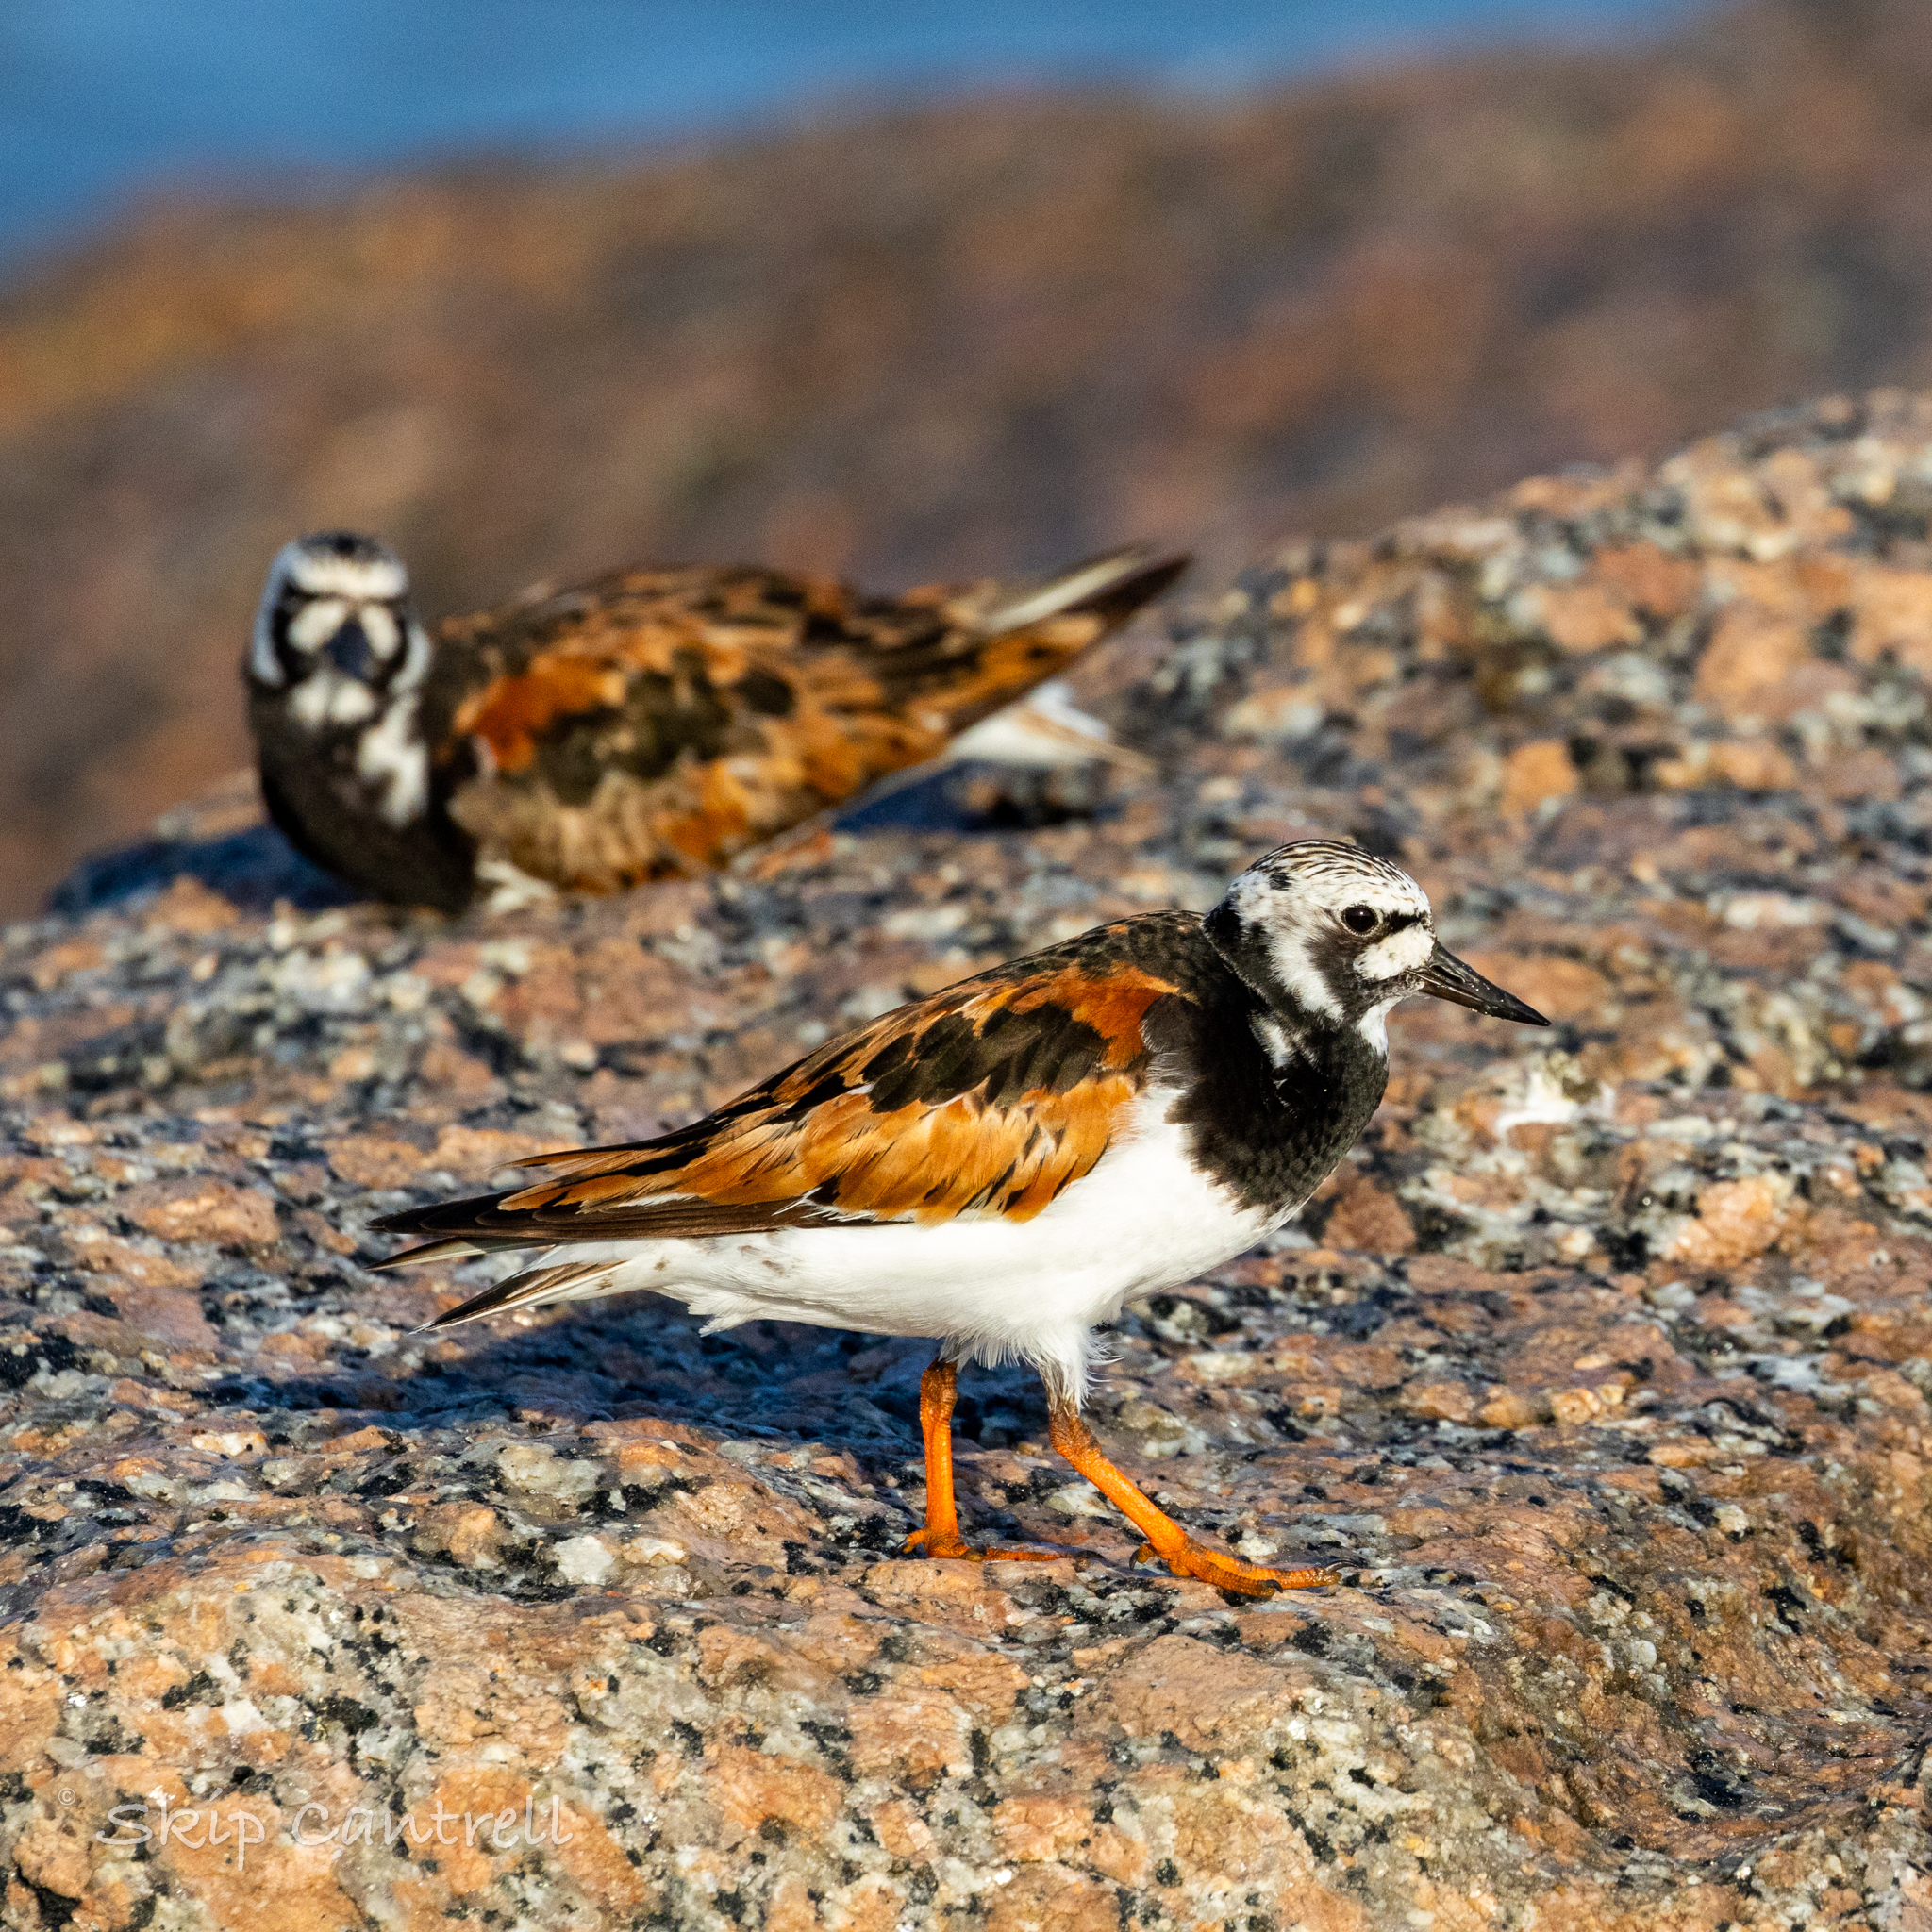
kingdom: Animalia
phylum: Chordata
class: Aves
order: Charadriiformes
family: Scolopacidae
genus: Arenaria
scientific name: Arenaria interpres
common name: Ruddy turnstone
